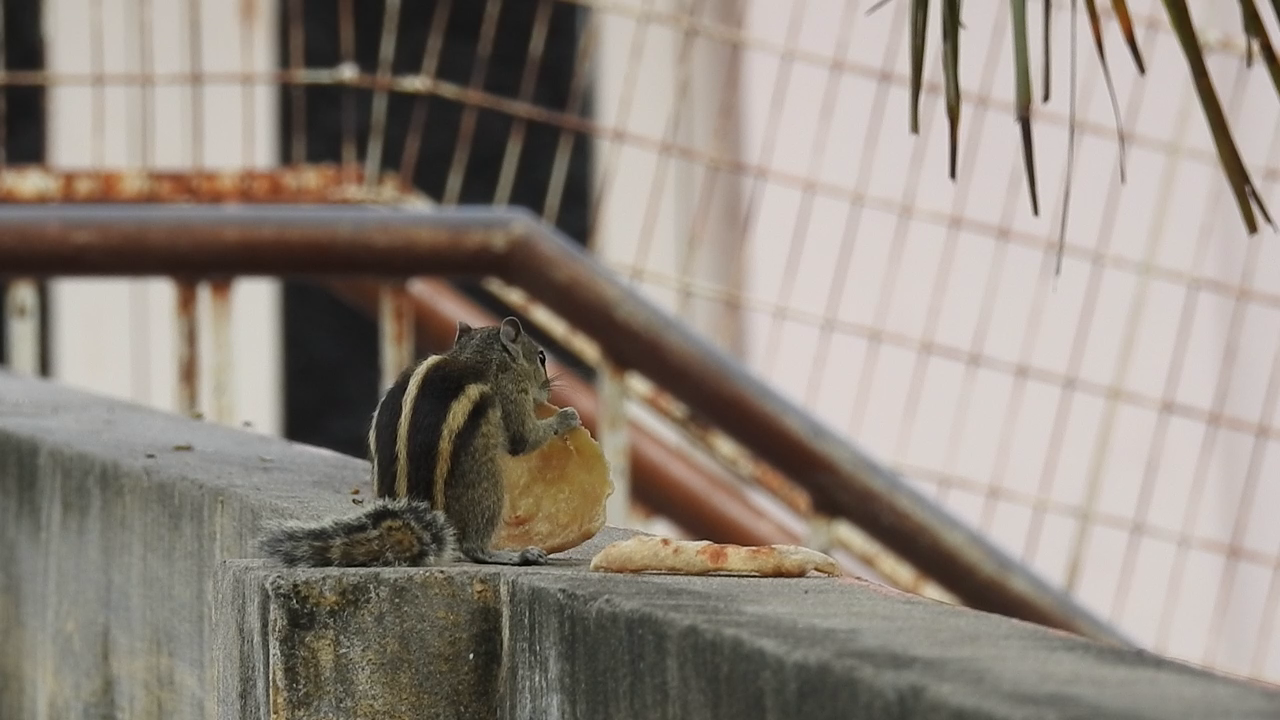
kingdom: Animalia
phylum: Chordata
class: Mammalia
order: Rodentia
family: Sciuridae
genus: Funambulus
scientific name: Funambulus palmarum
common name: Indian palm squirrel
